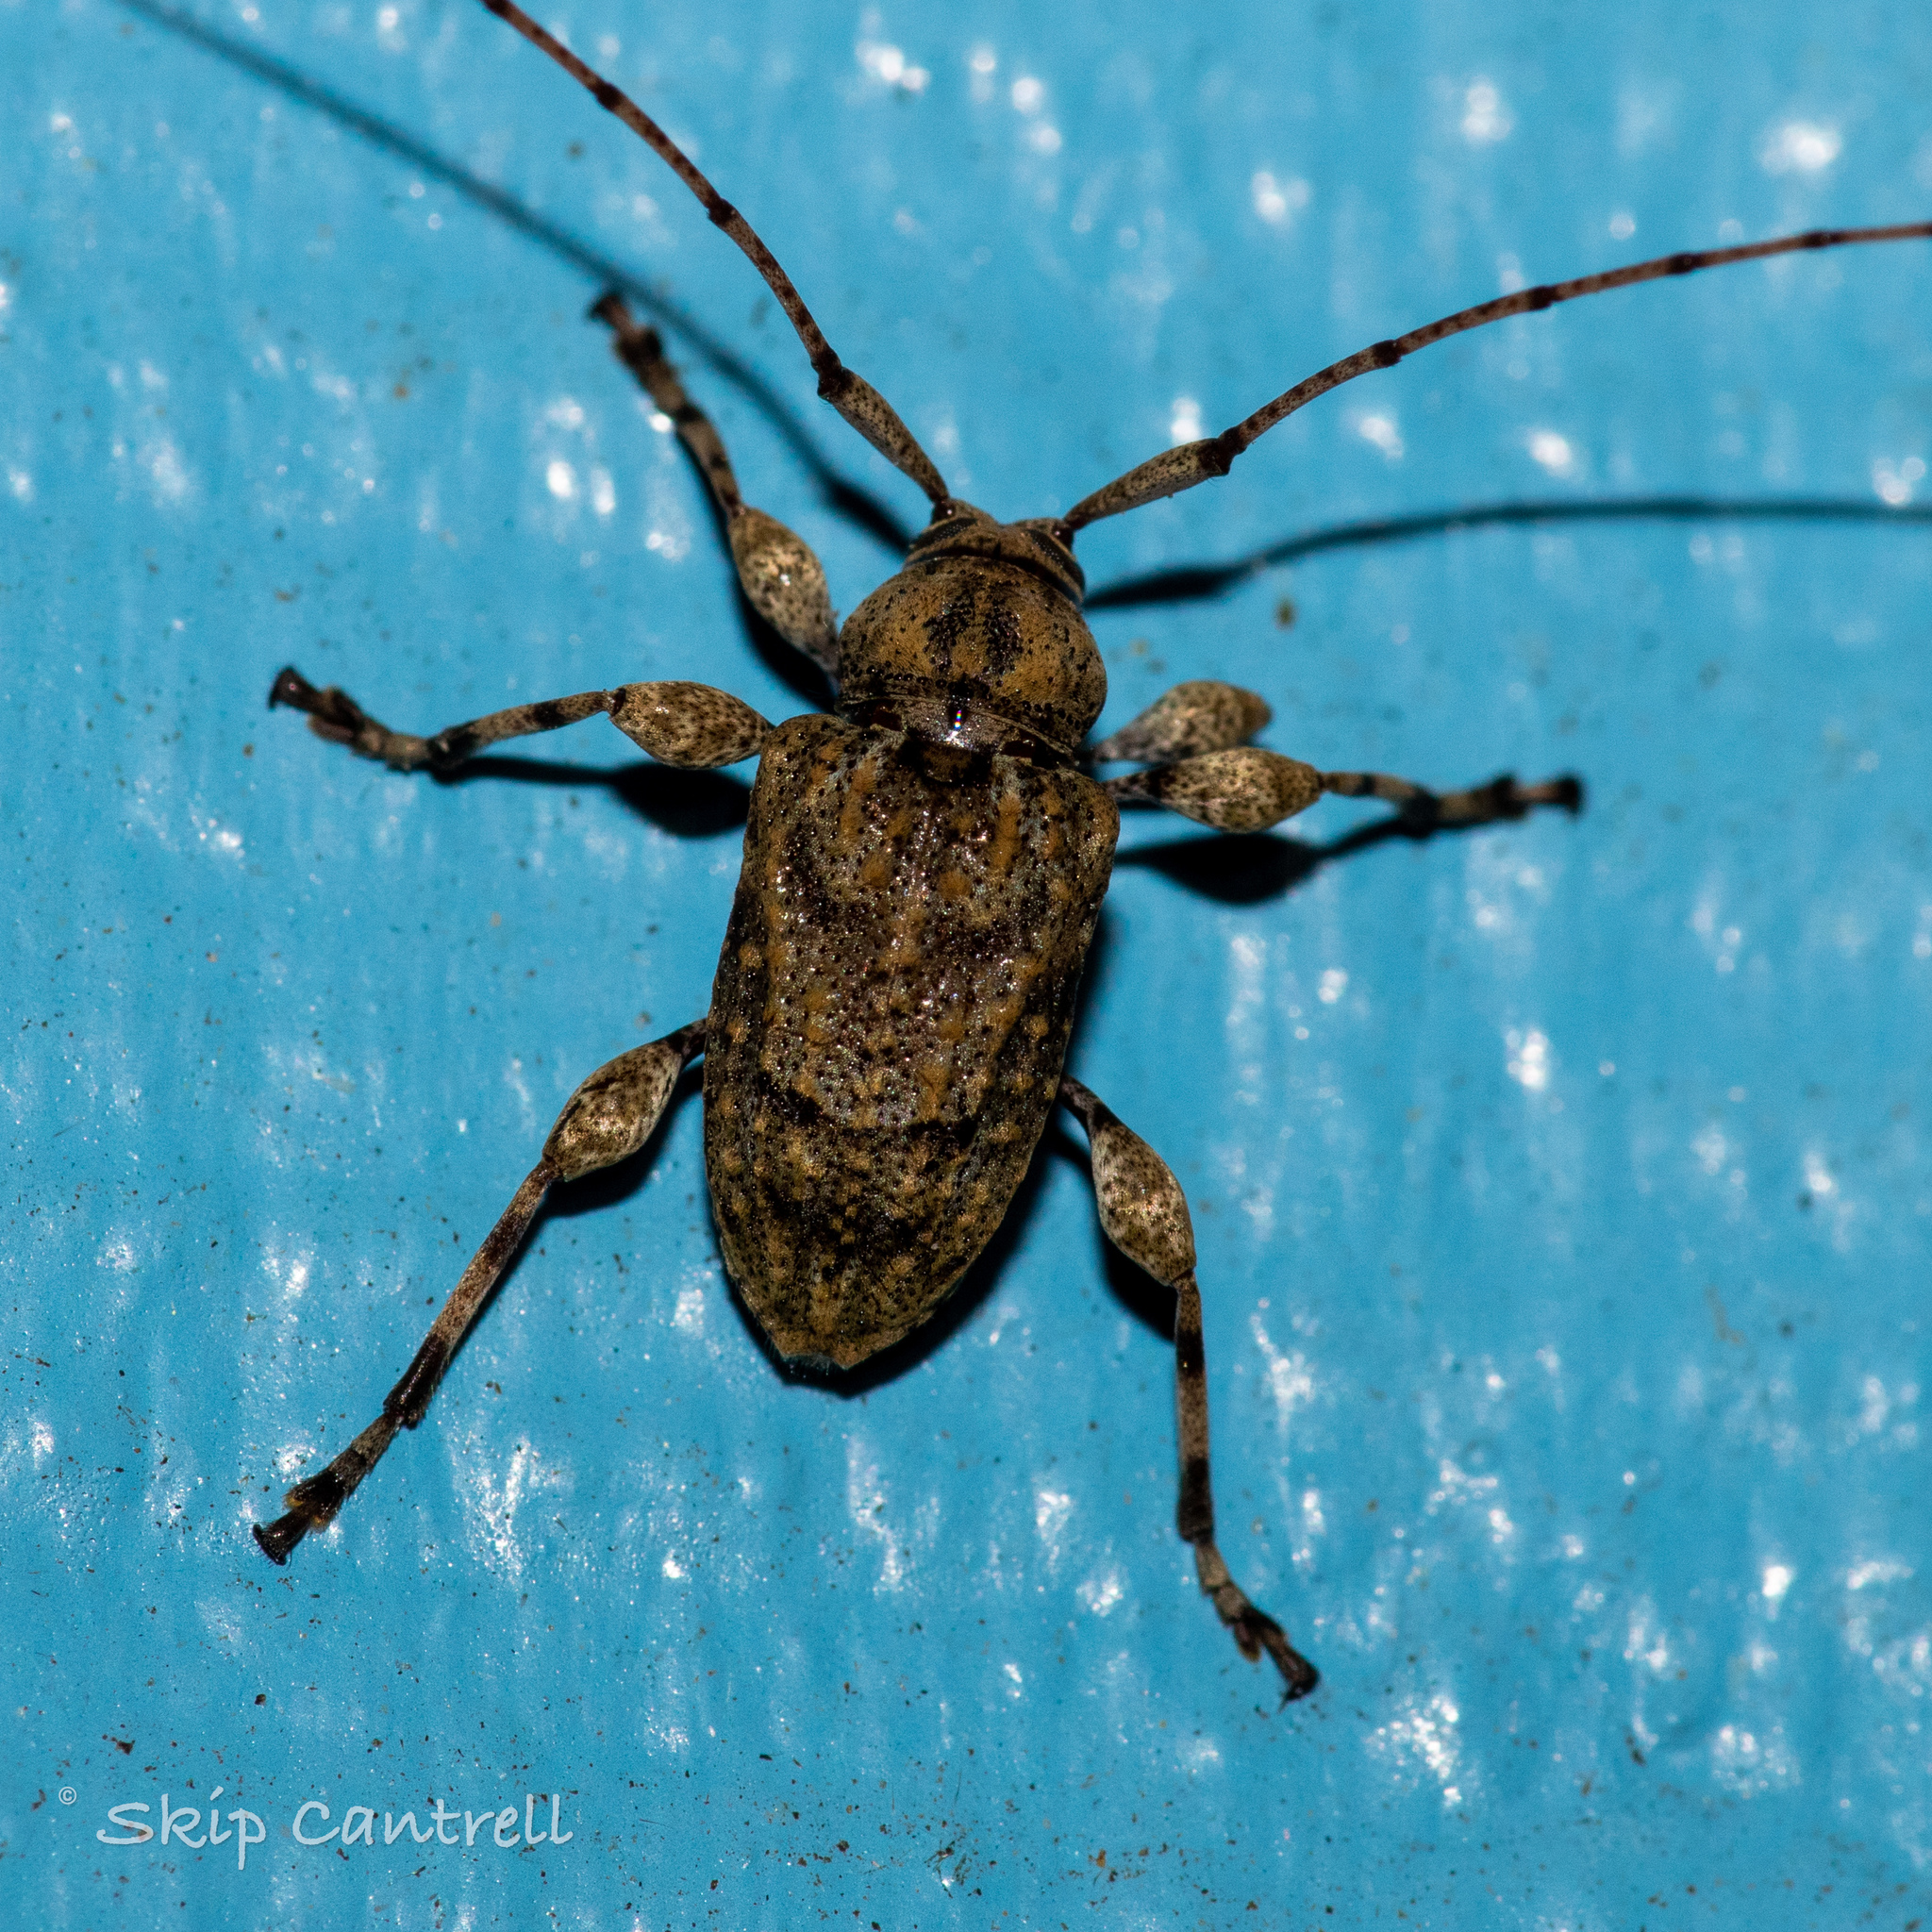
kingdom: Animalia
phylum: Arthropoda
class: Insecta
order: Coleoptera
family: Cerambycidae
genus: Leptostylopsis
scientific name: Leptostylopsis terraecolor
